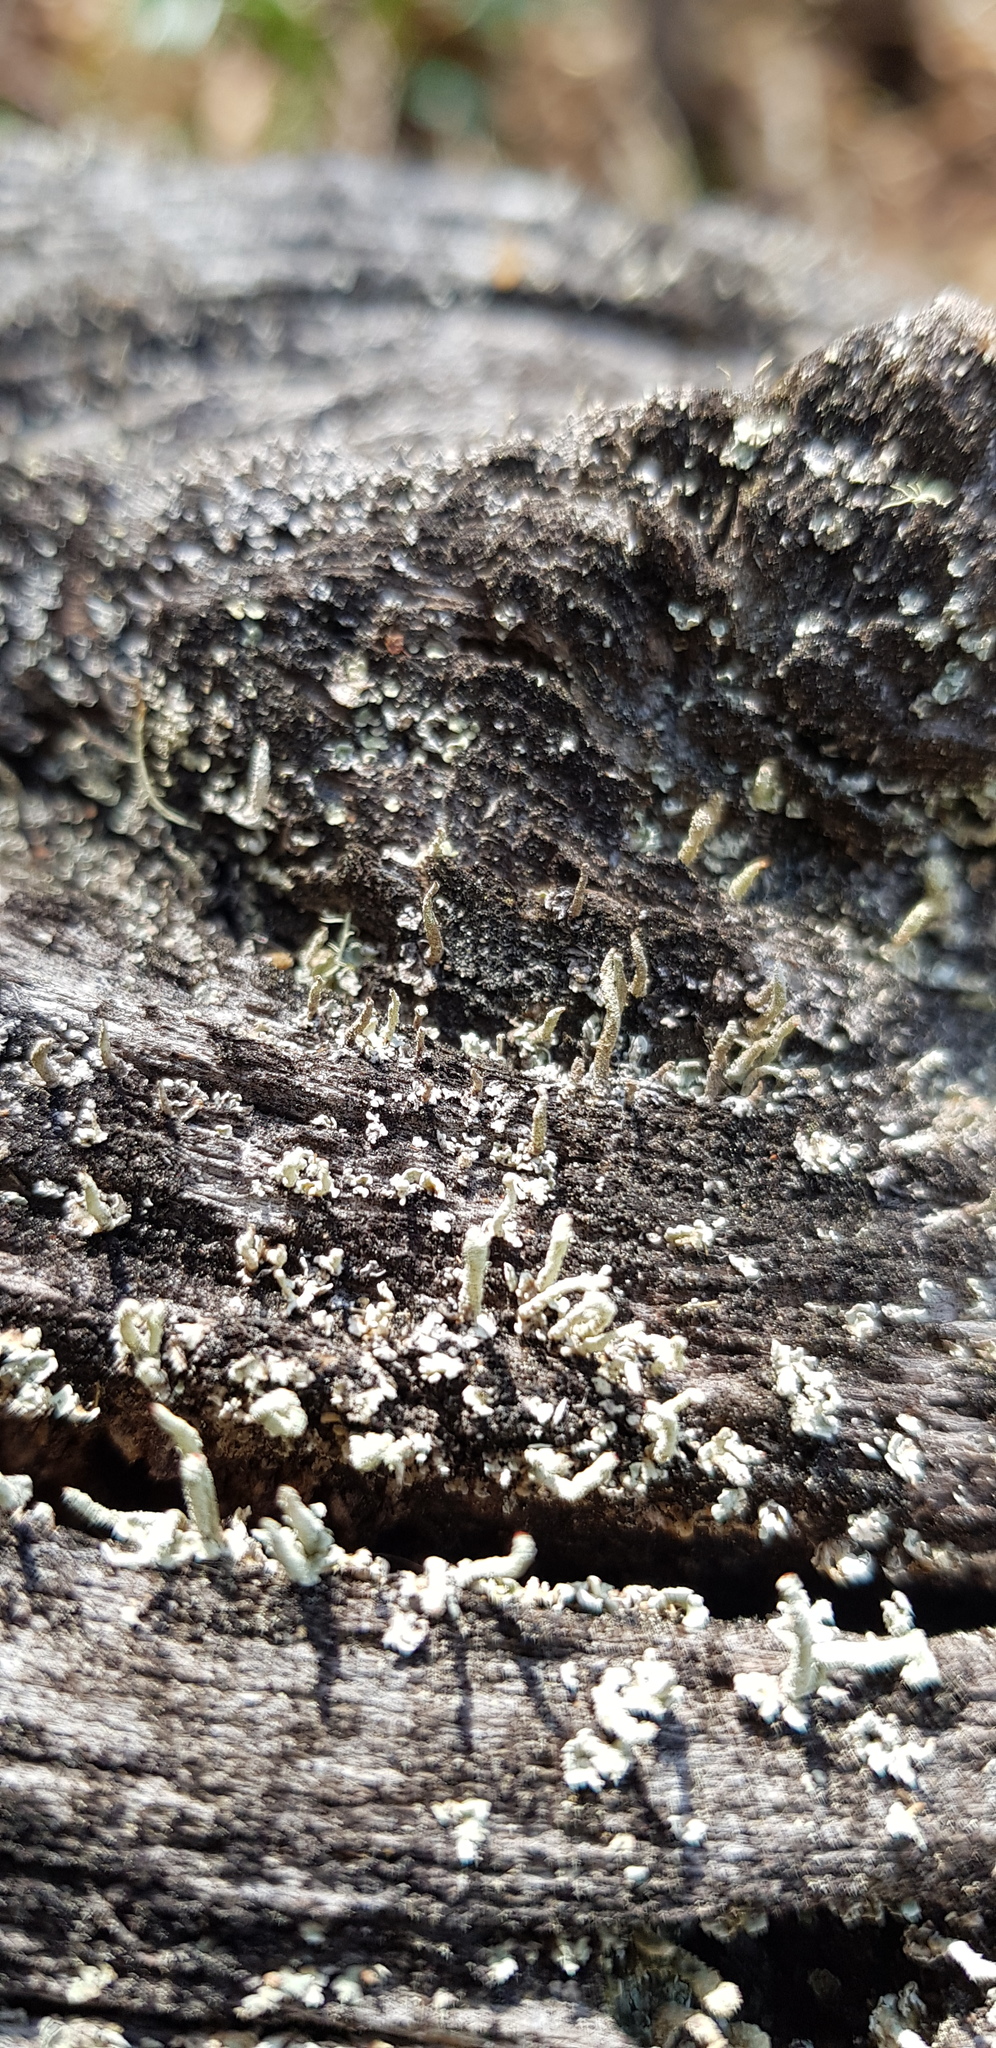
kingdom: Fungi
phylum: Ascomycota
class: Lecanoromycetes
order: Lecanorales
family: Cladoniaceae
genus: Cladonia
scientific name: Cladonia macilenta
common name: Lipstick powderhorn
